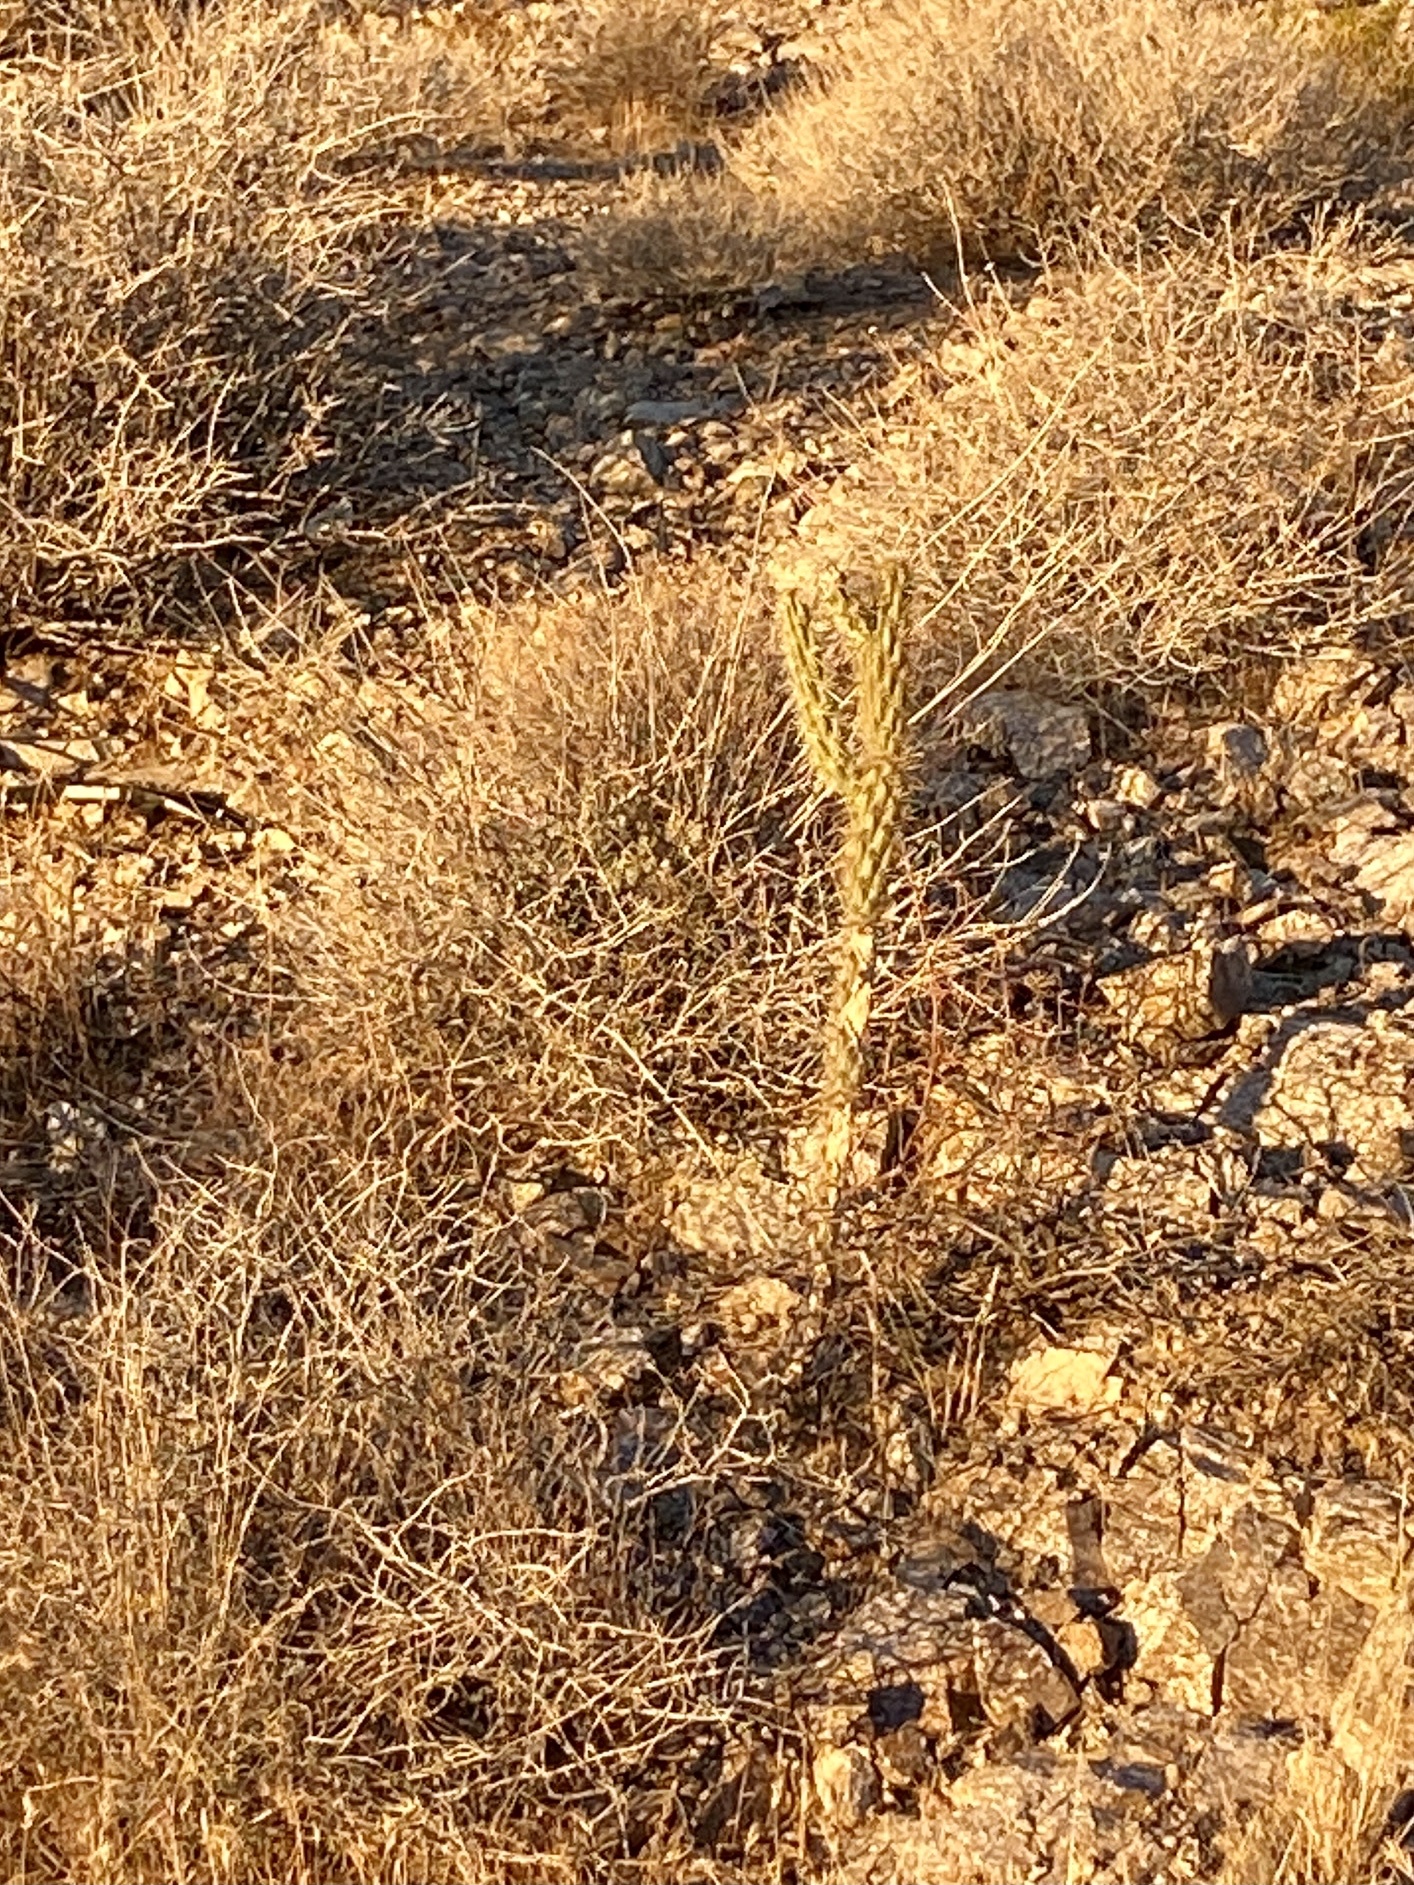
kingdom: Plantae
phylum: Tracheophyta
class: Magnoliopsida
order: Caryophyllales
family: Cactaceae
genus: Cylindropuntia
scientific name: Cylindropuntia acanthocarpa
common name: Buckhorn cholla
